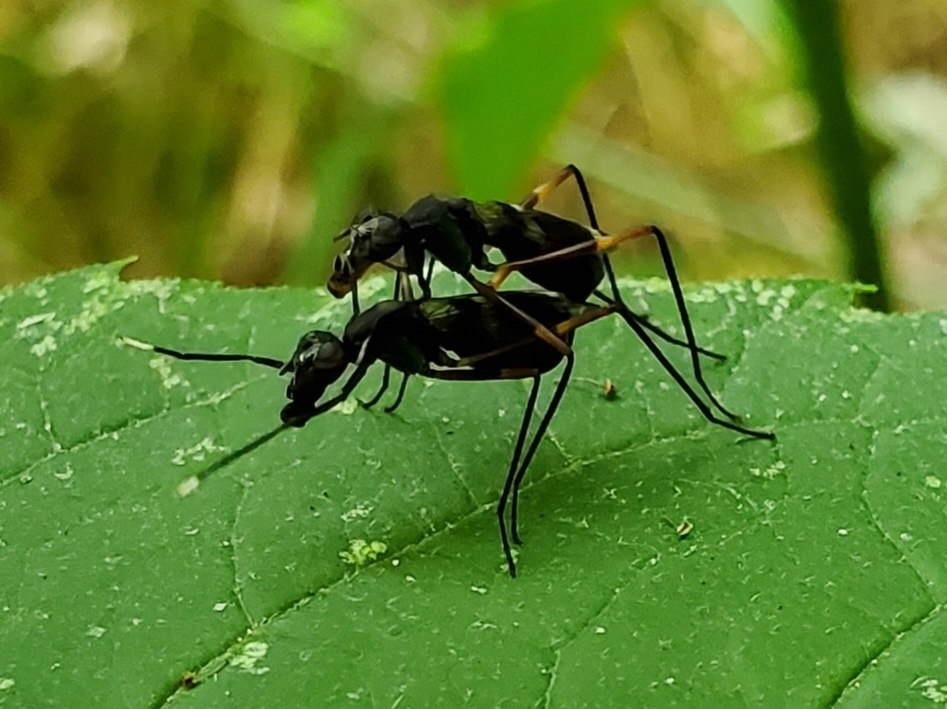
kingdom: Animalia
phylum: Arthropoda
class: Insecta
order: Diptera
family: Micropezidae
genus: Taeniaptera
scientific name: Taeniaptera trivittata
